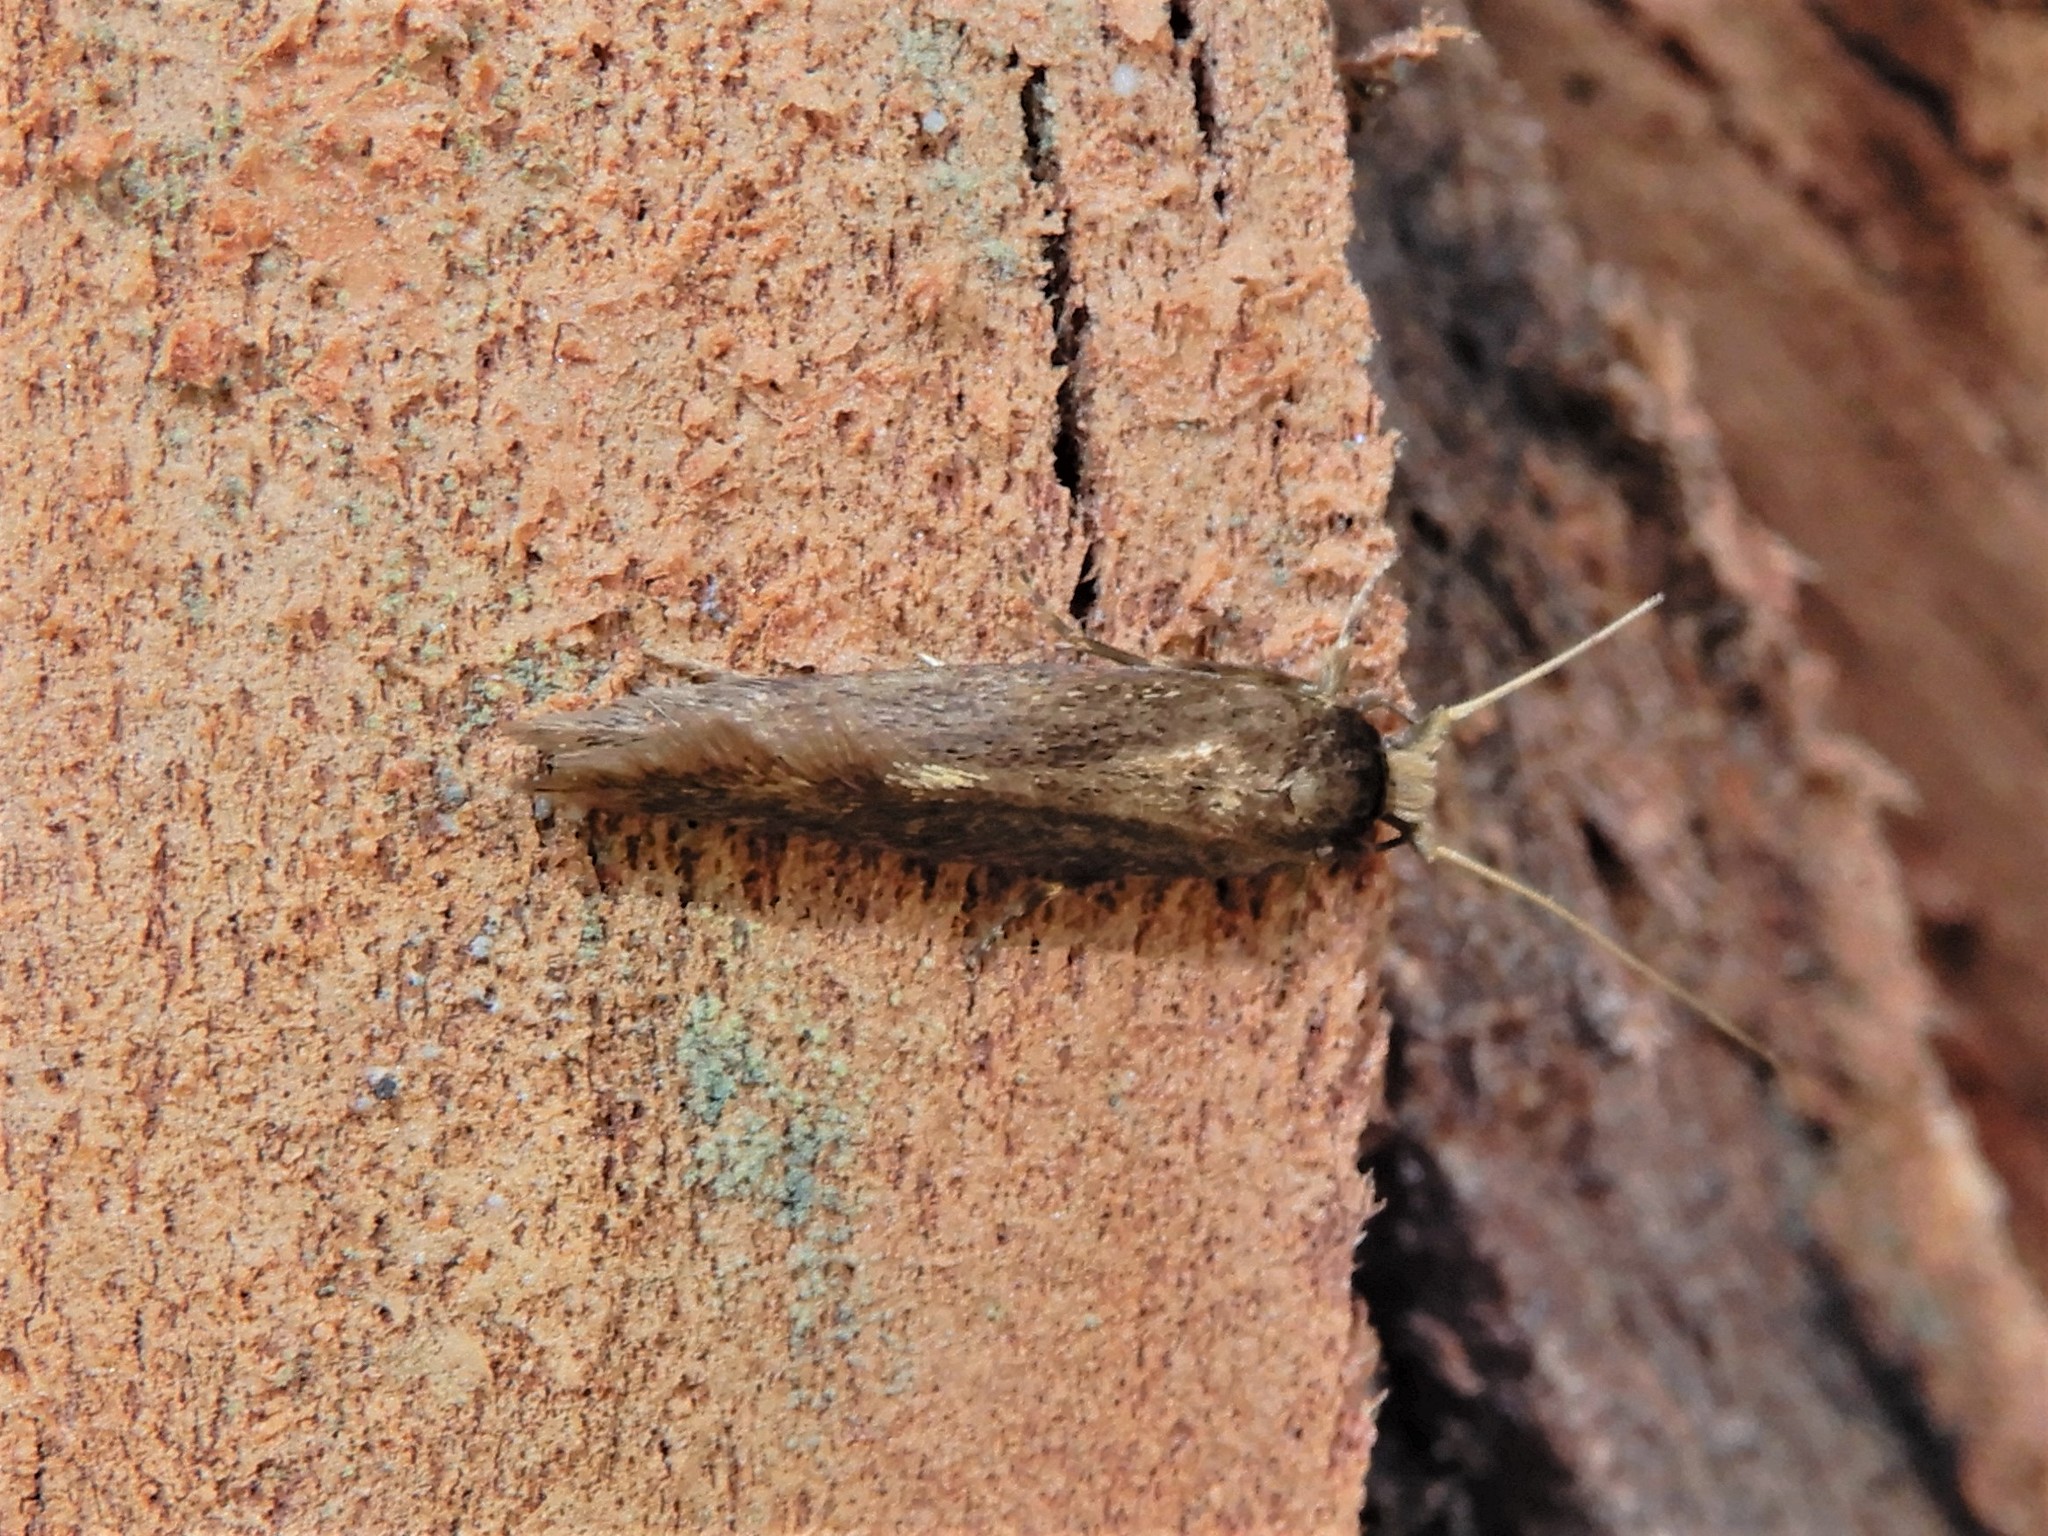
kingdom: Animalia
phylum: Arthropoda
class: Insecta
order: Lepidoptera
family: Tineidae
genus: Opogona
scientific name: Opogona omoscopa
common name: Moth
